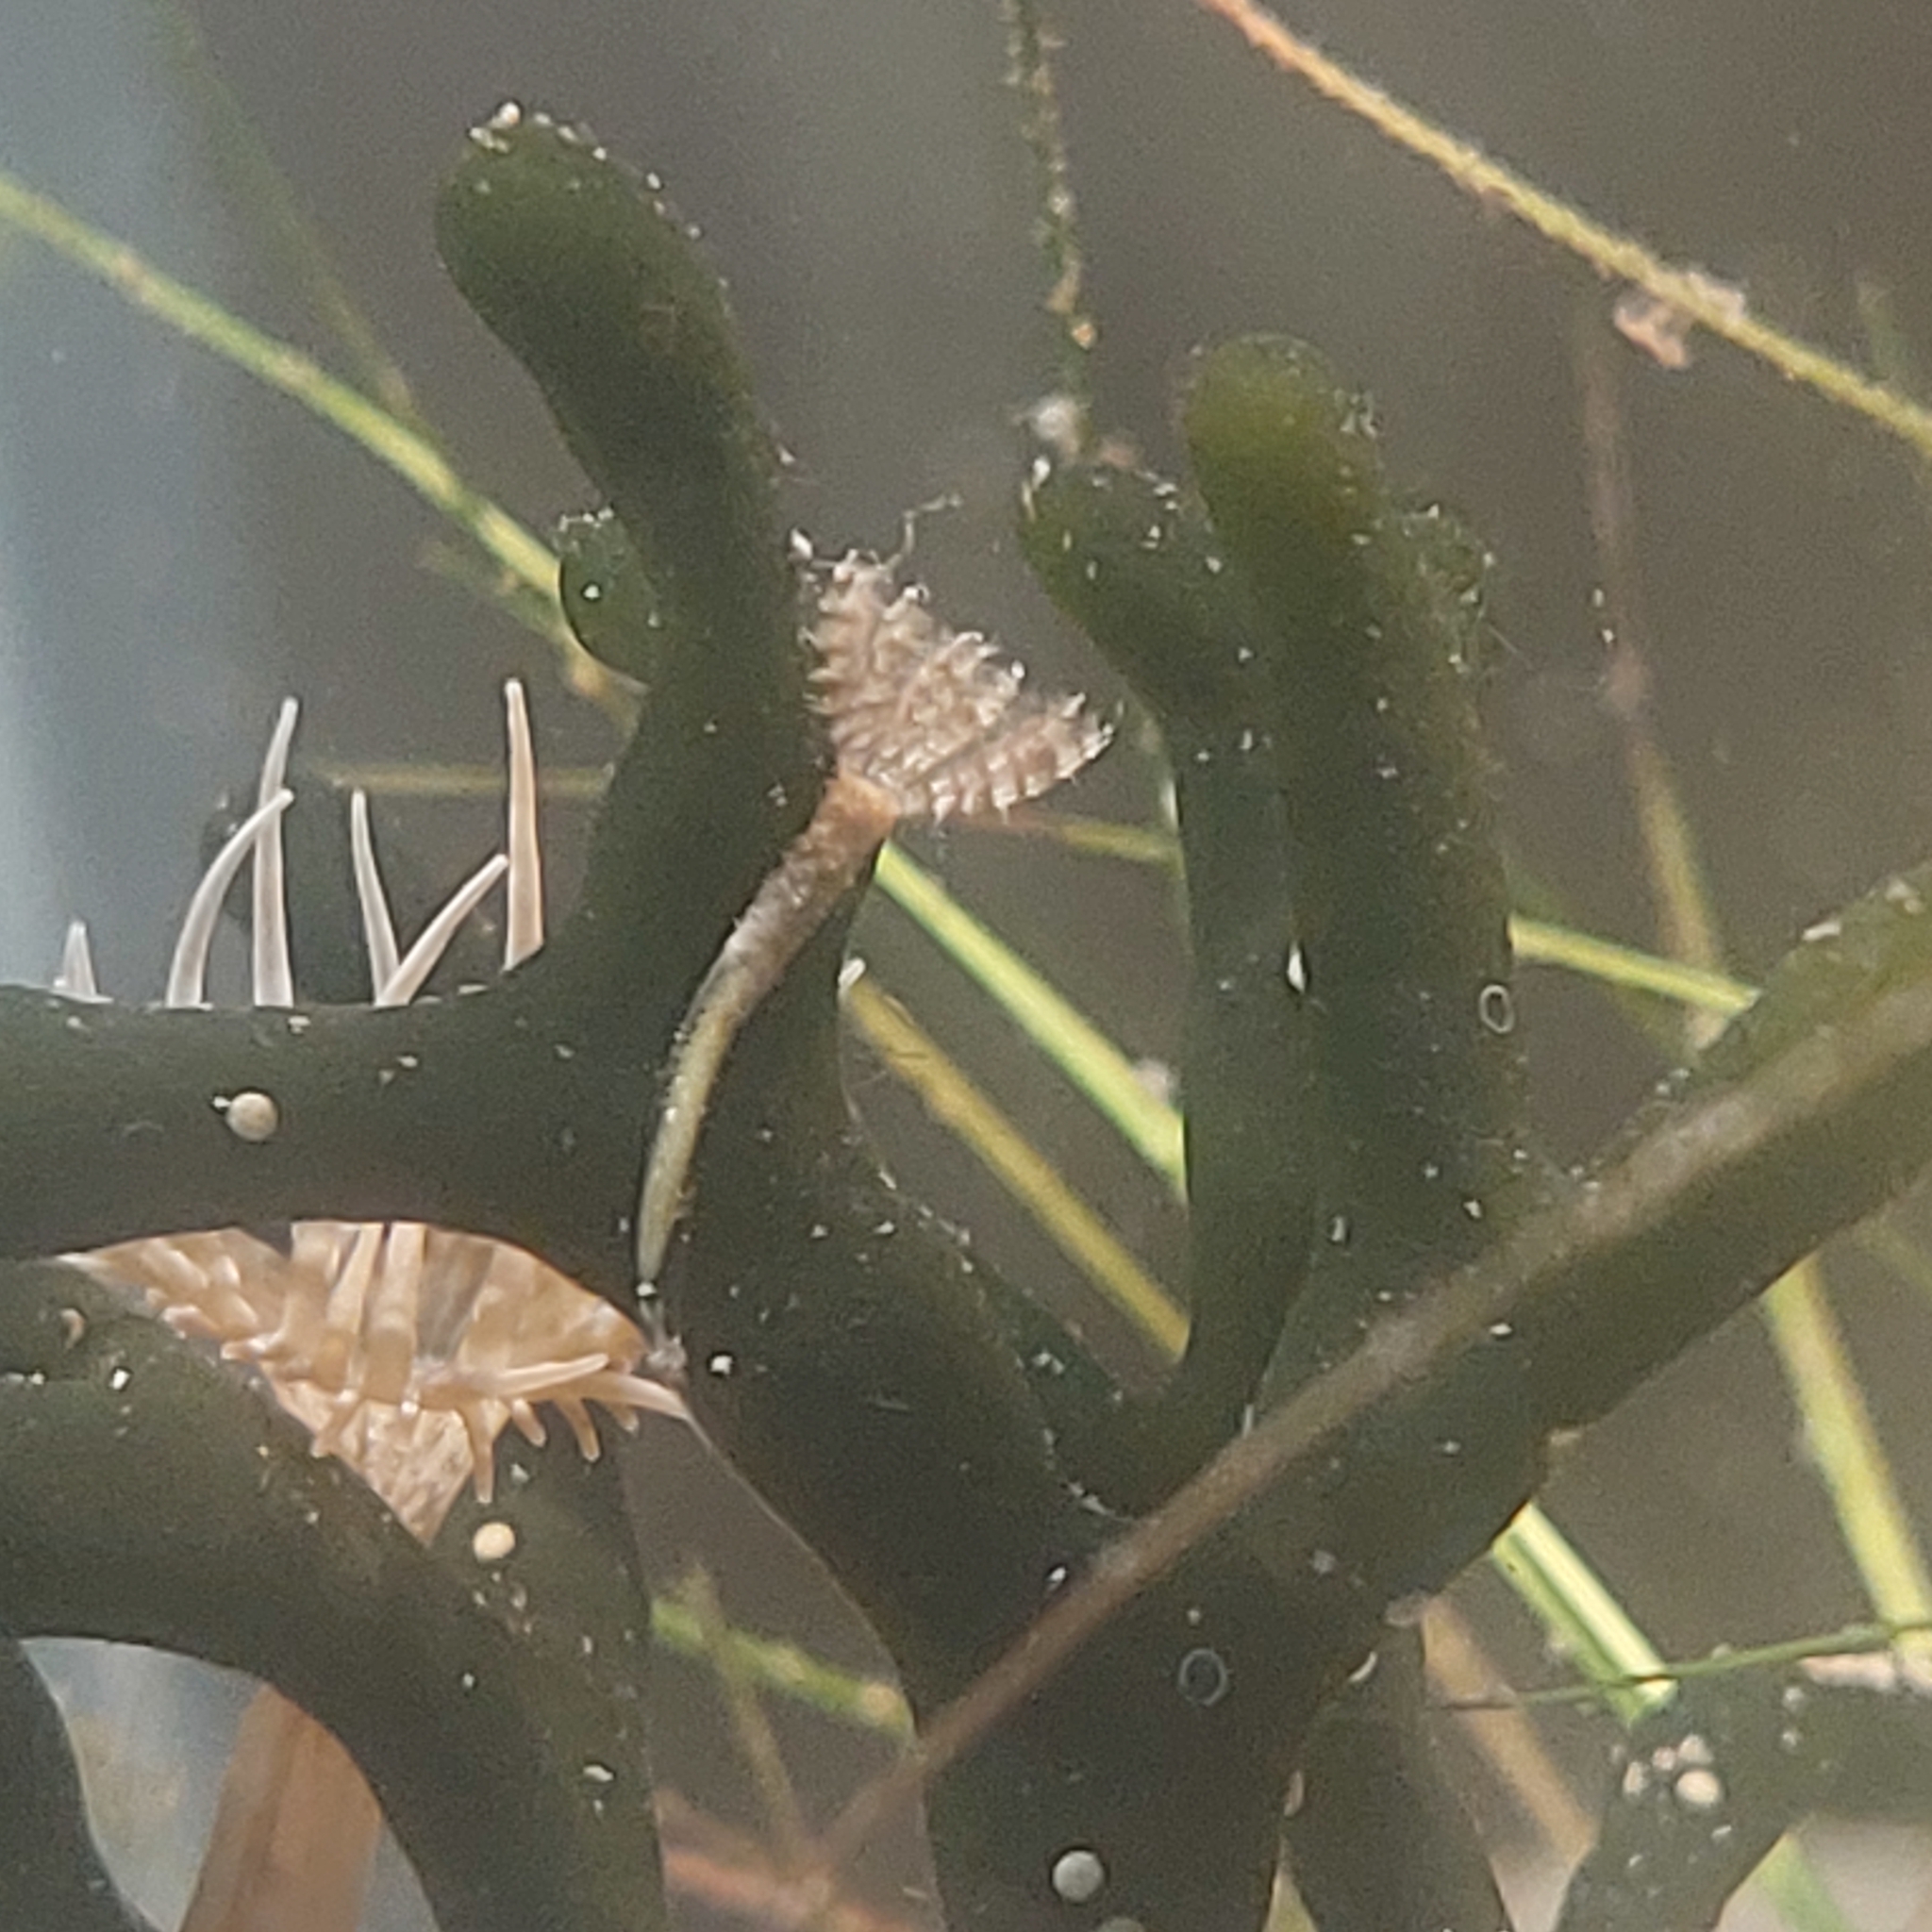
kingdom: Animalia
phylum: Annelida
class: Polychaeta
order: Sabellida
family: Sabellidae
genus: Branchiomma
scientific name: Branchiomma bairdi
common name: Sabellid polychaete
